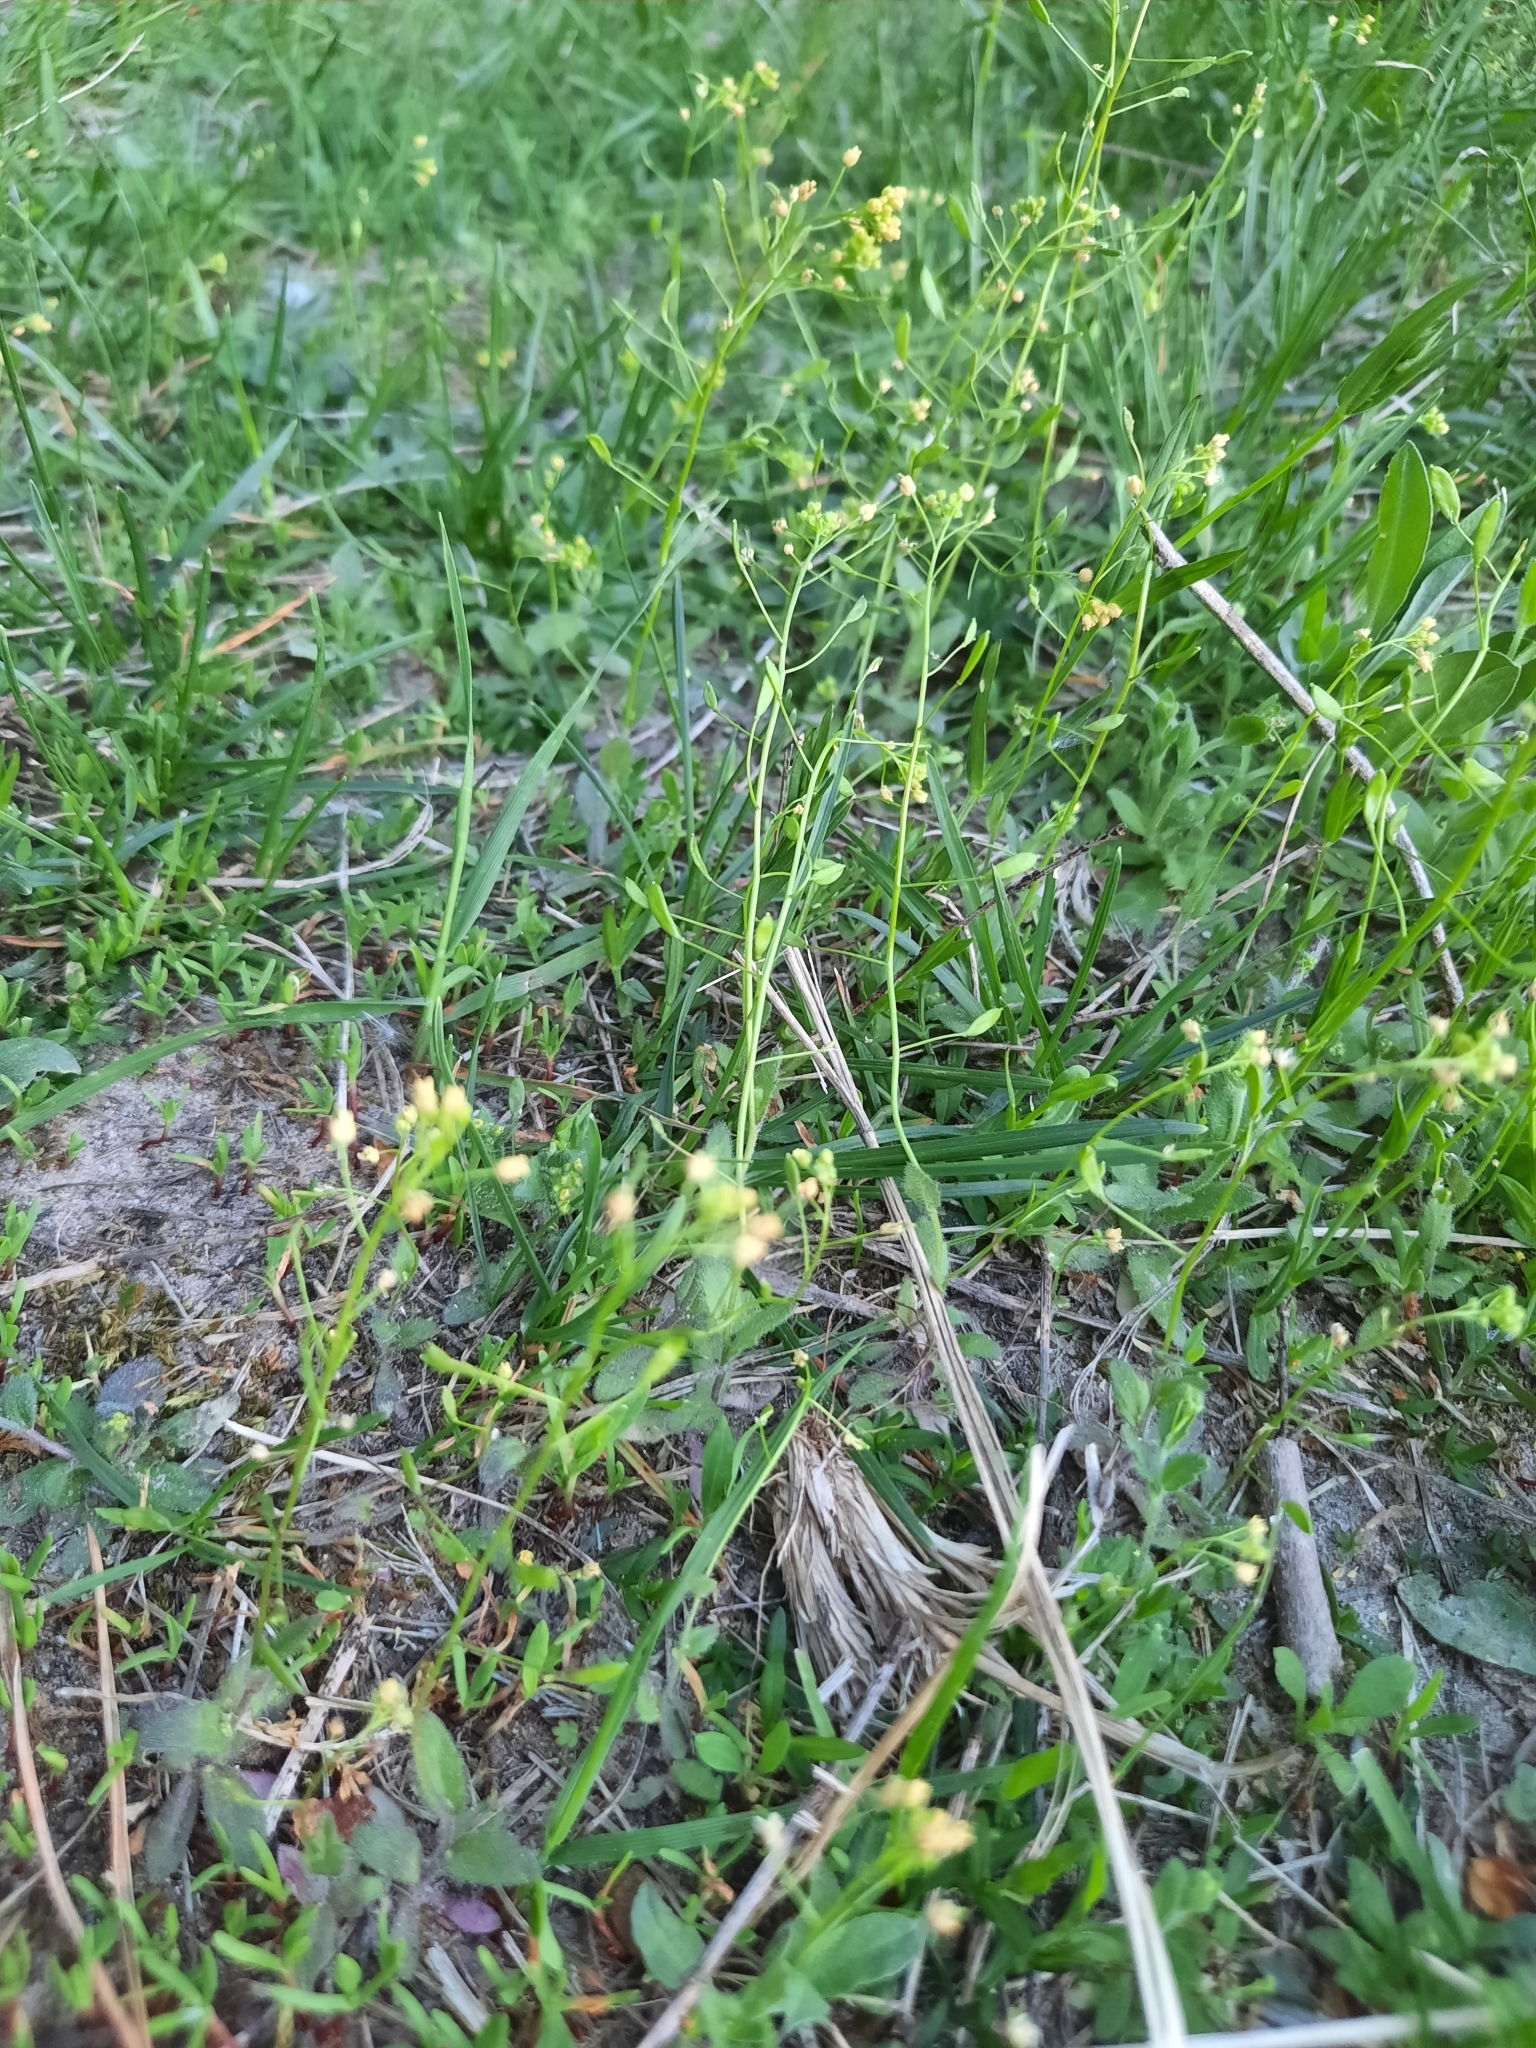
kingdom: Plantae
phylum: Tracheophyta
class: Magnoliopsida
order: Brassicales
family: Brassicaceae
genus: Draba
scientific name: Draba nemorosa
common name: Wood whitlow-grass
